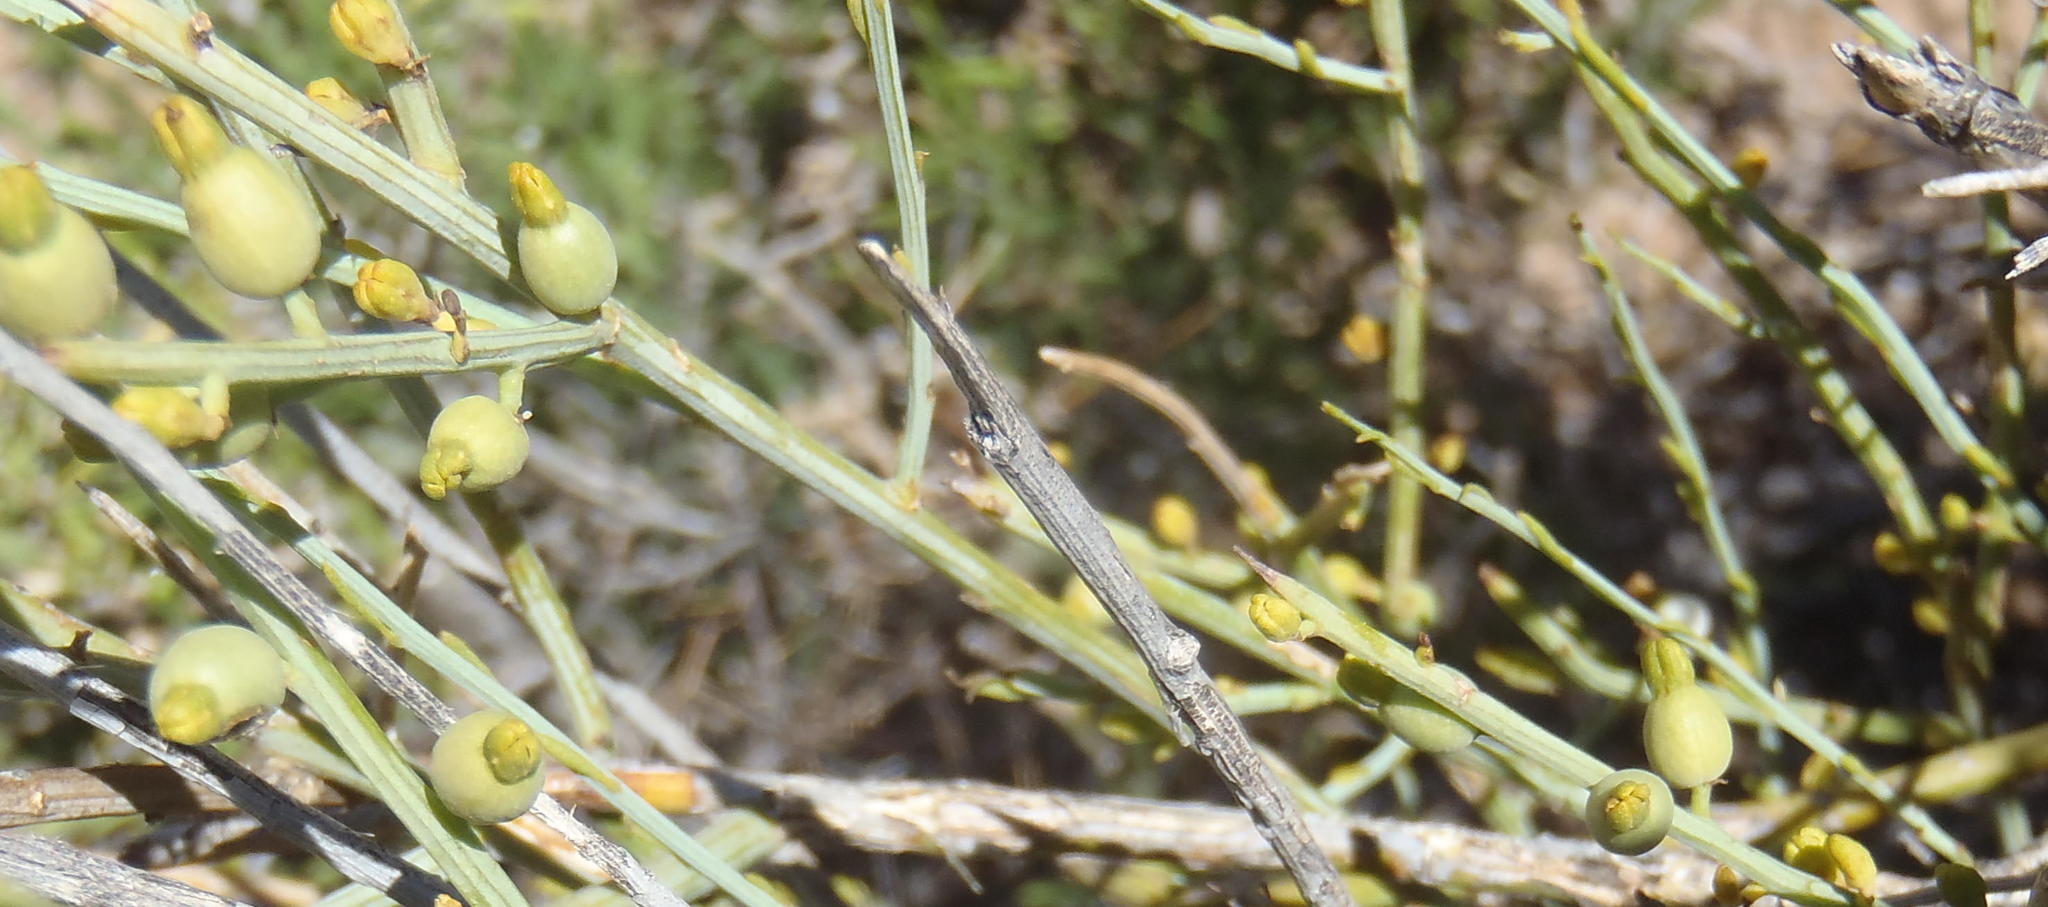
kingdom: Plantae
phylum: Tracheophyta
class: Magnoliopsida
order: Santalales
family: Thesiaceae
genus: Lacomucinaea
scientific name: Lacomucinaea lineata
